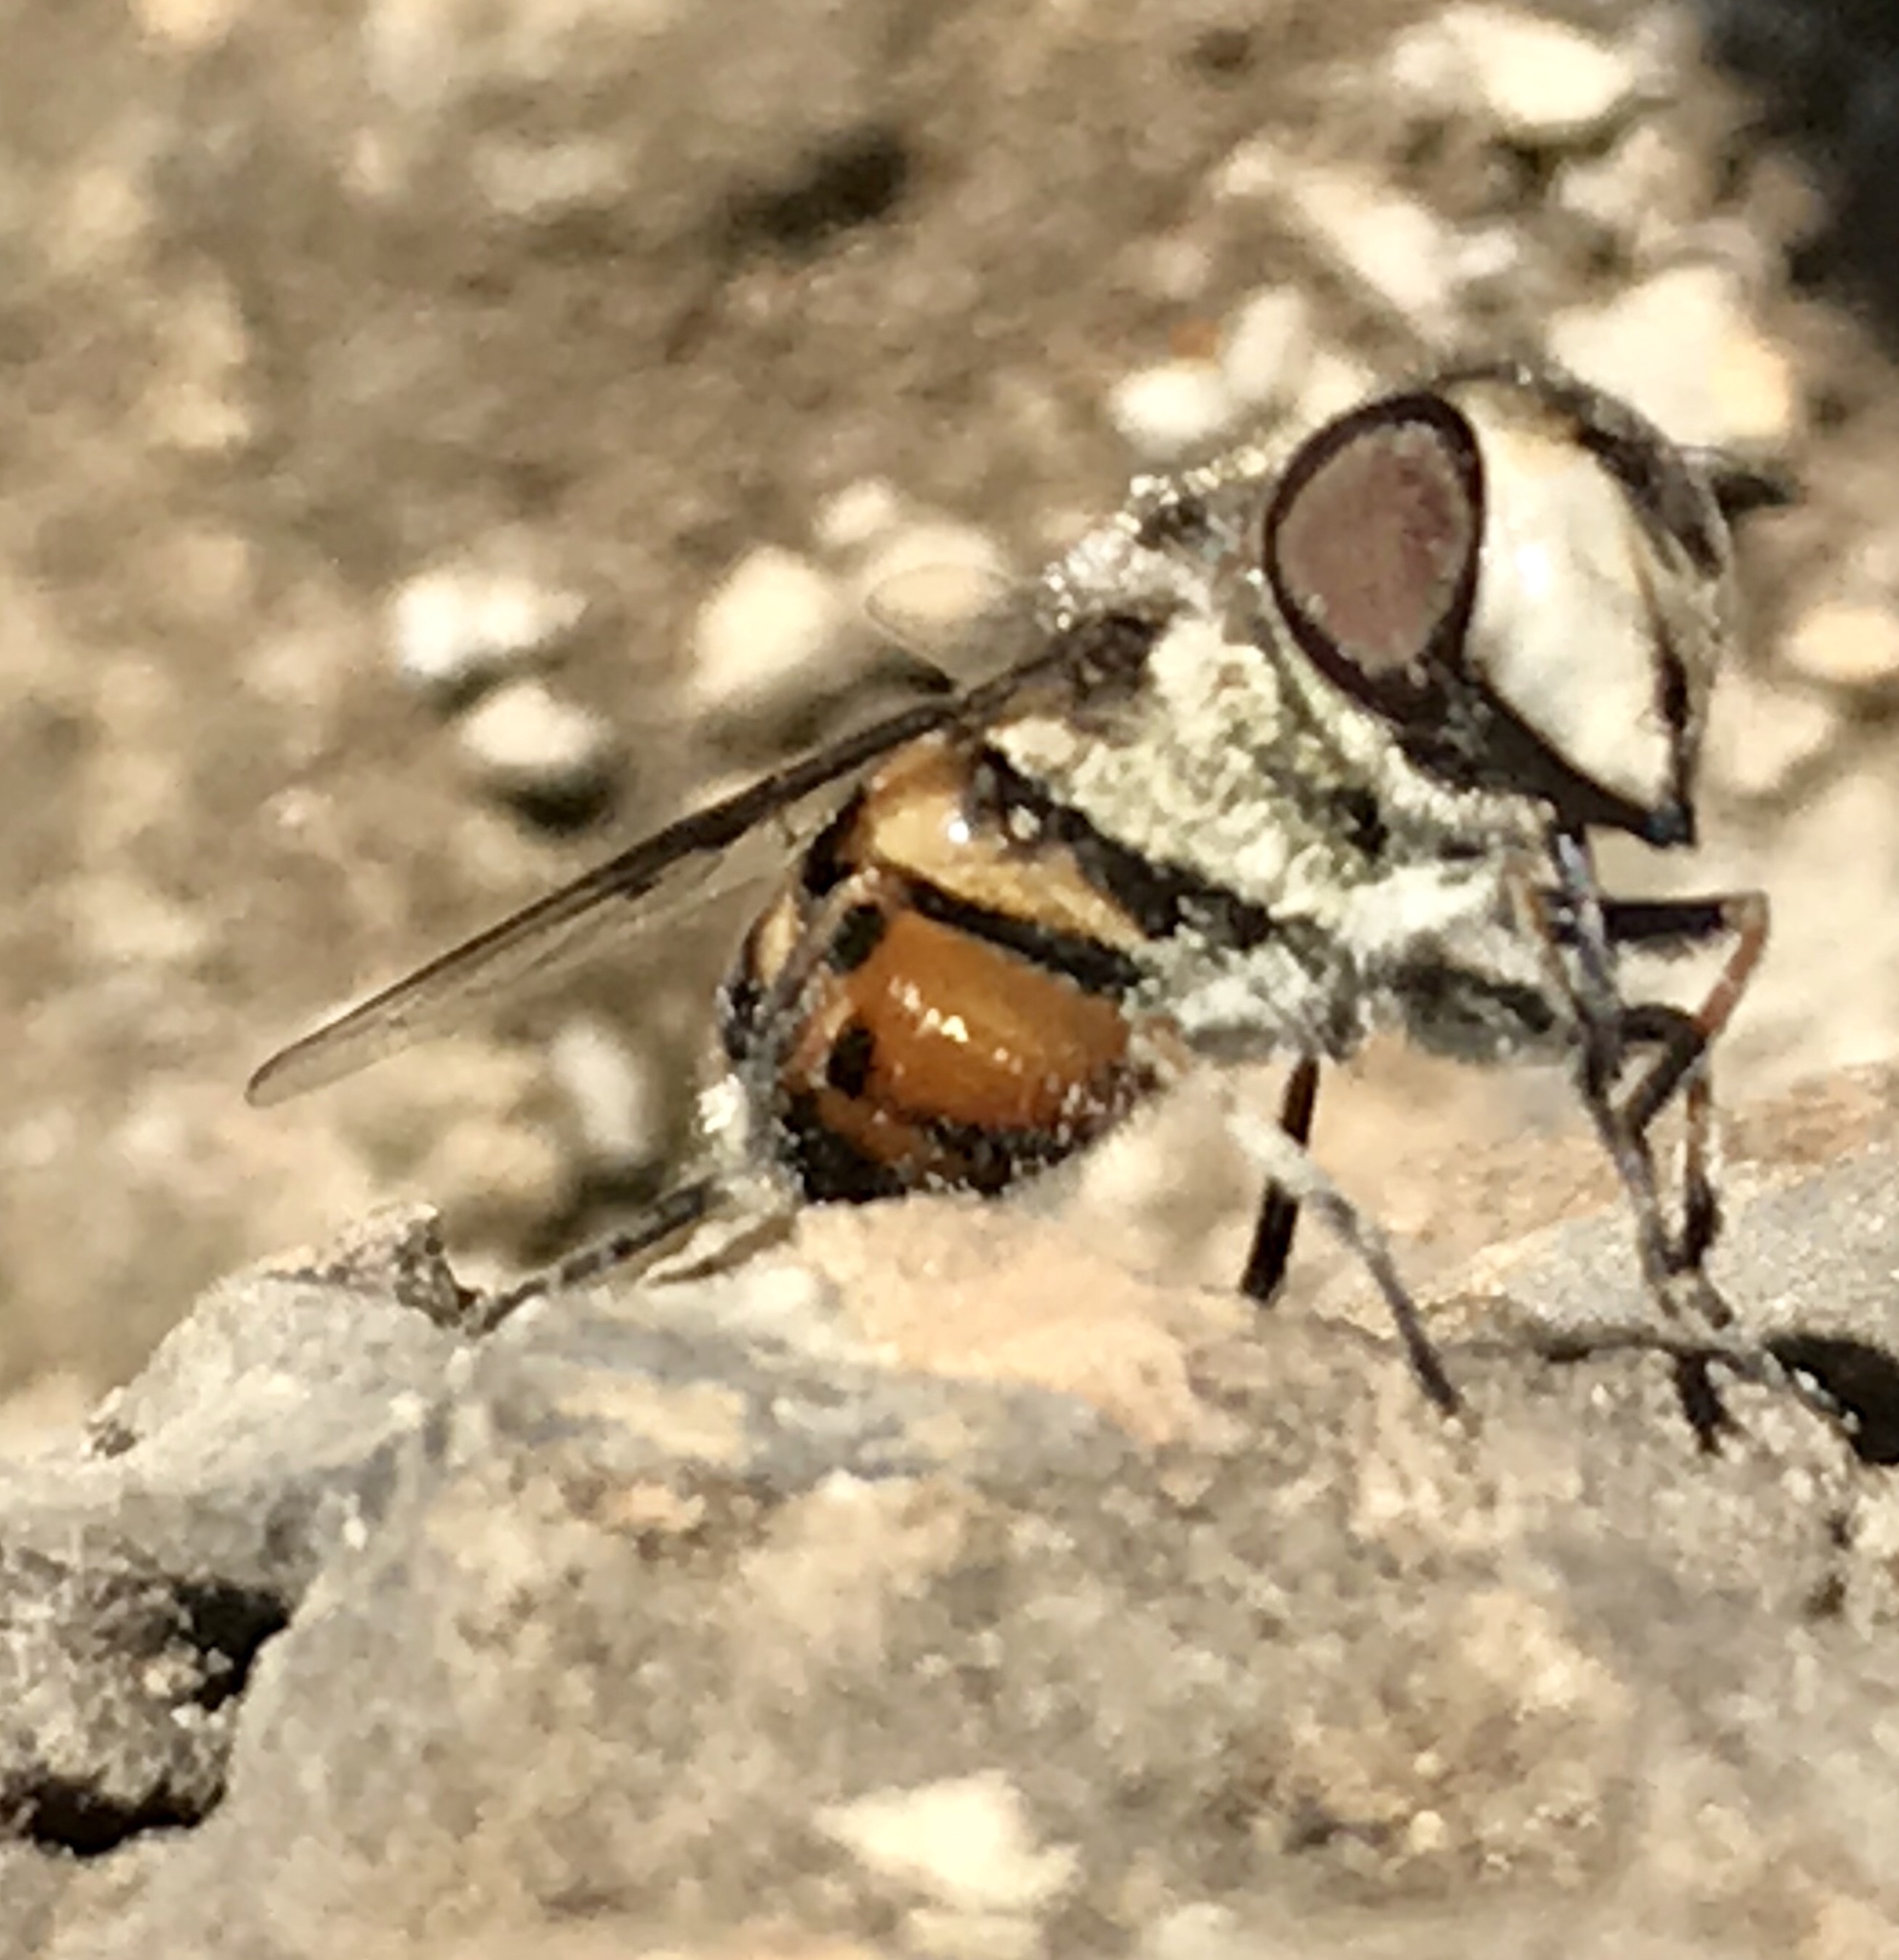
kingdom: Animalia
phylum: Arthropoda
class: Insecta
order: Diptera
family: Syrphidae
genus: Copestylum
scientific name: Copestylum avidum
